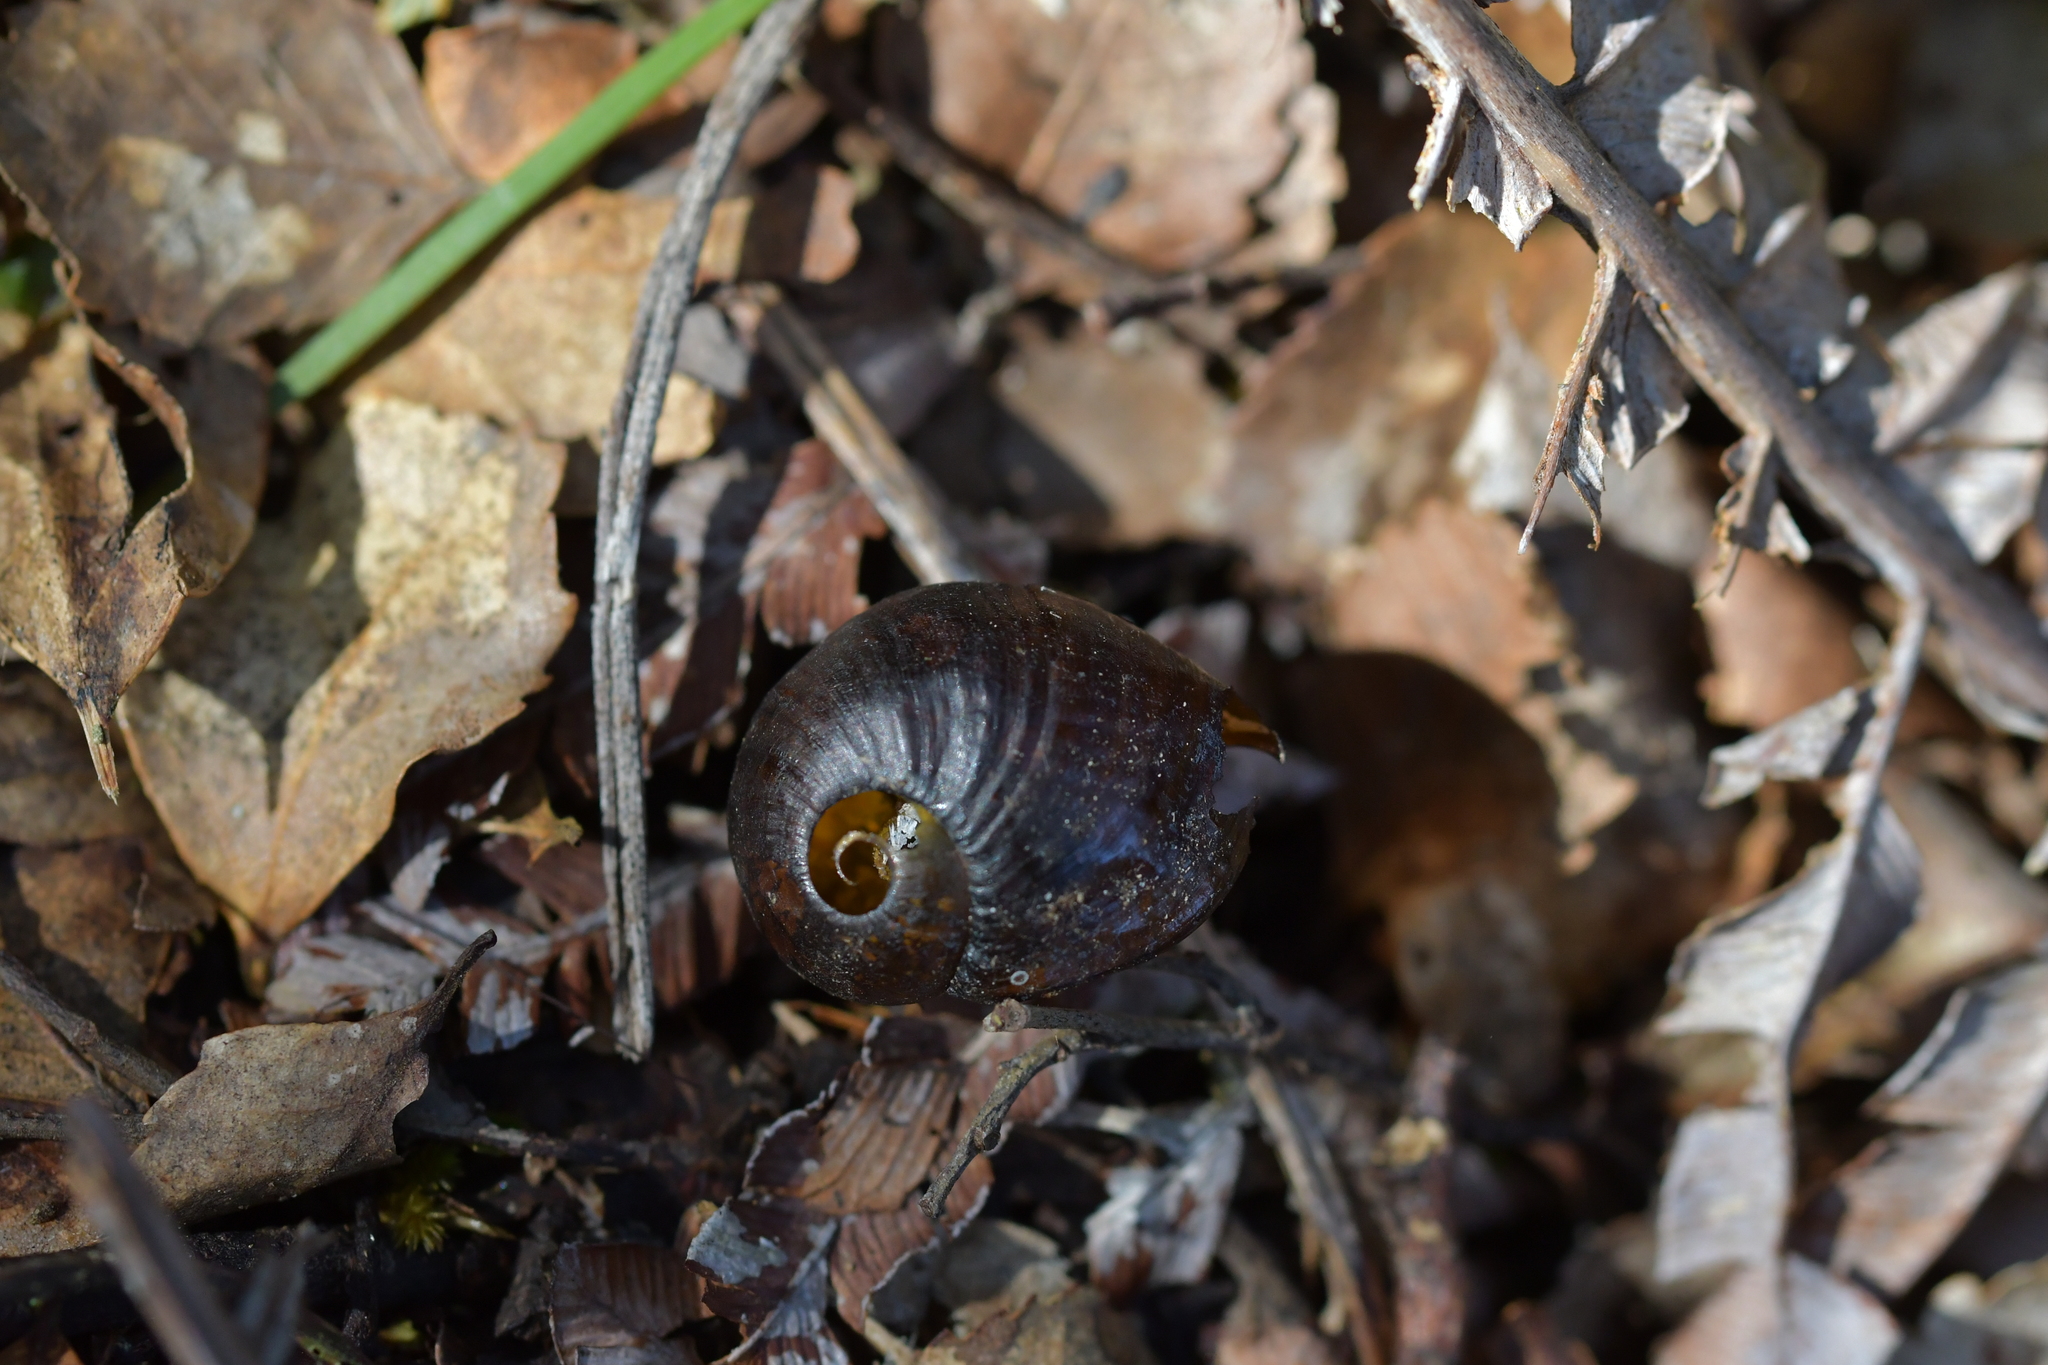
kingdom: Animalia
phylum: Mollusca
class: Gastropoda
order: Stylommatophora
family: Rhytididae
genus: Wainuia
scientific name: Wainuia urnula
